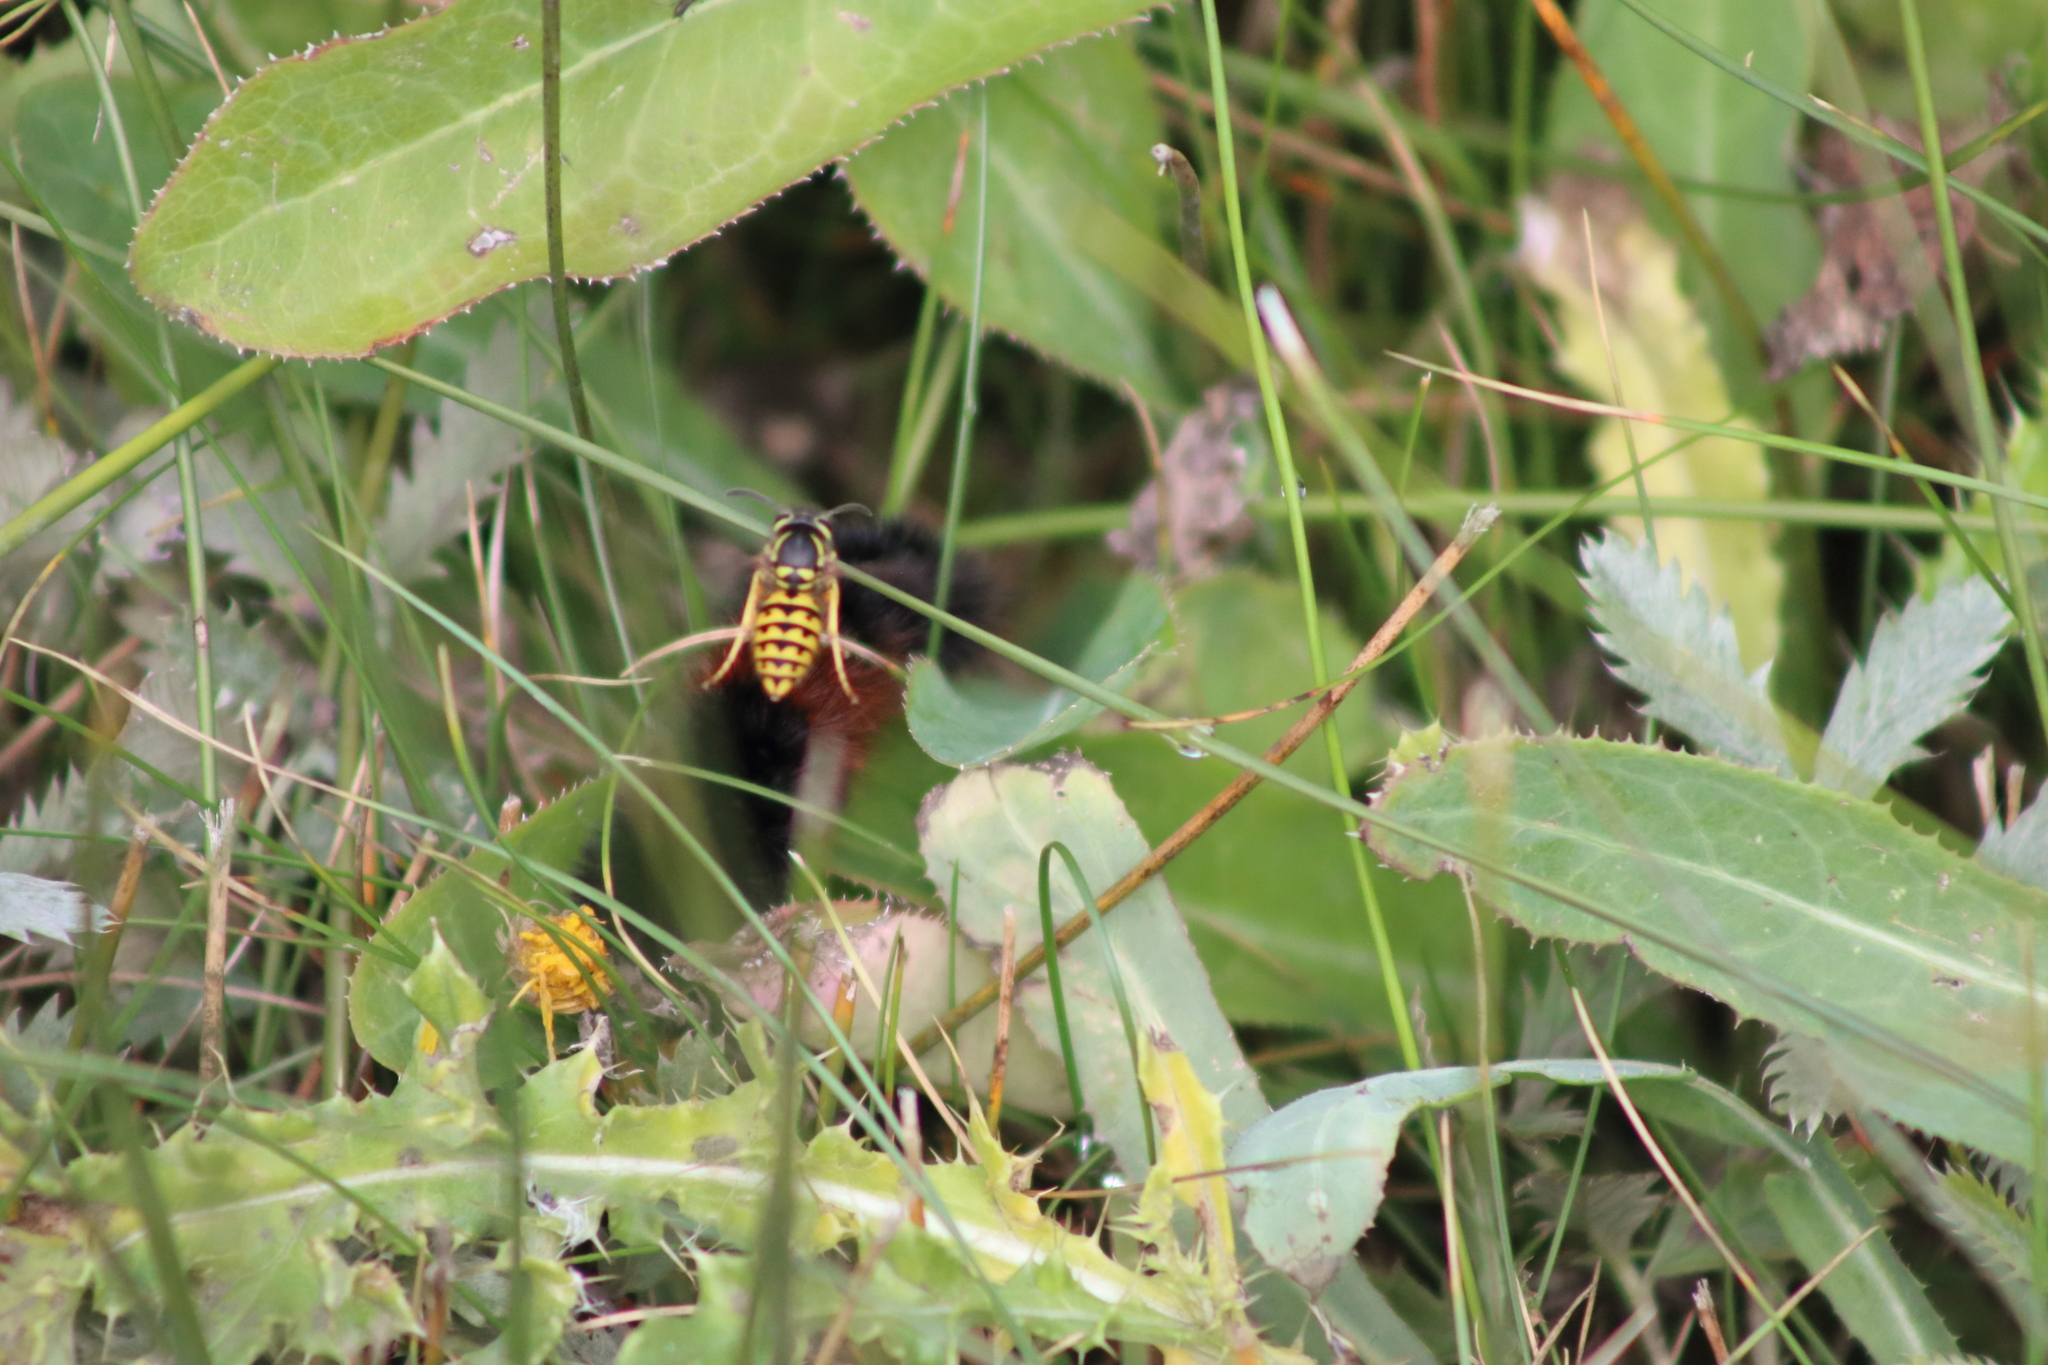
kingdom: Animalia
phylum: Arthropoda
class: Insecta
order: Hymenoptera
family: Vespidae
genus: Vespula
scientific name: Vespula pensylvanica
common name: Western yellowjacket
